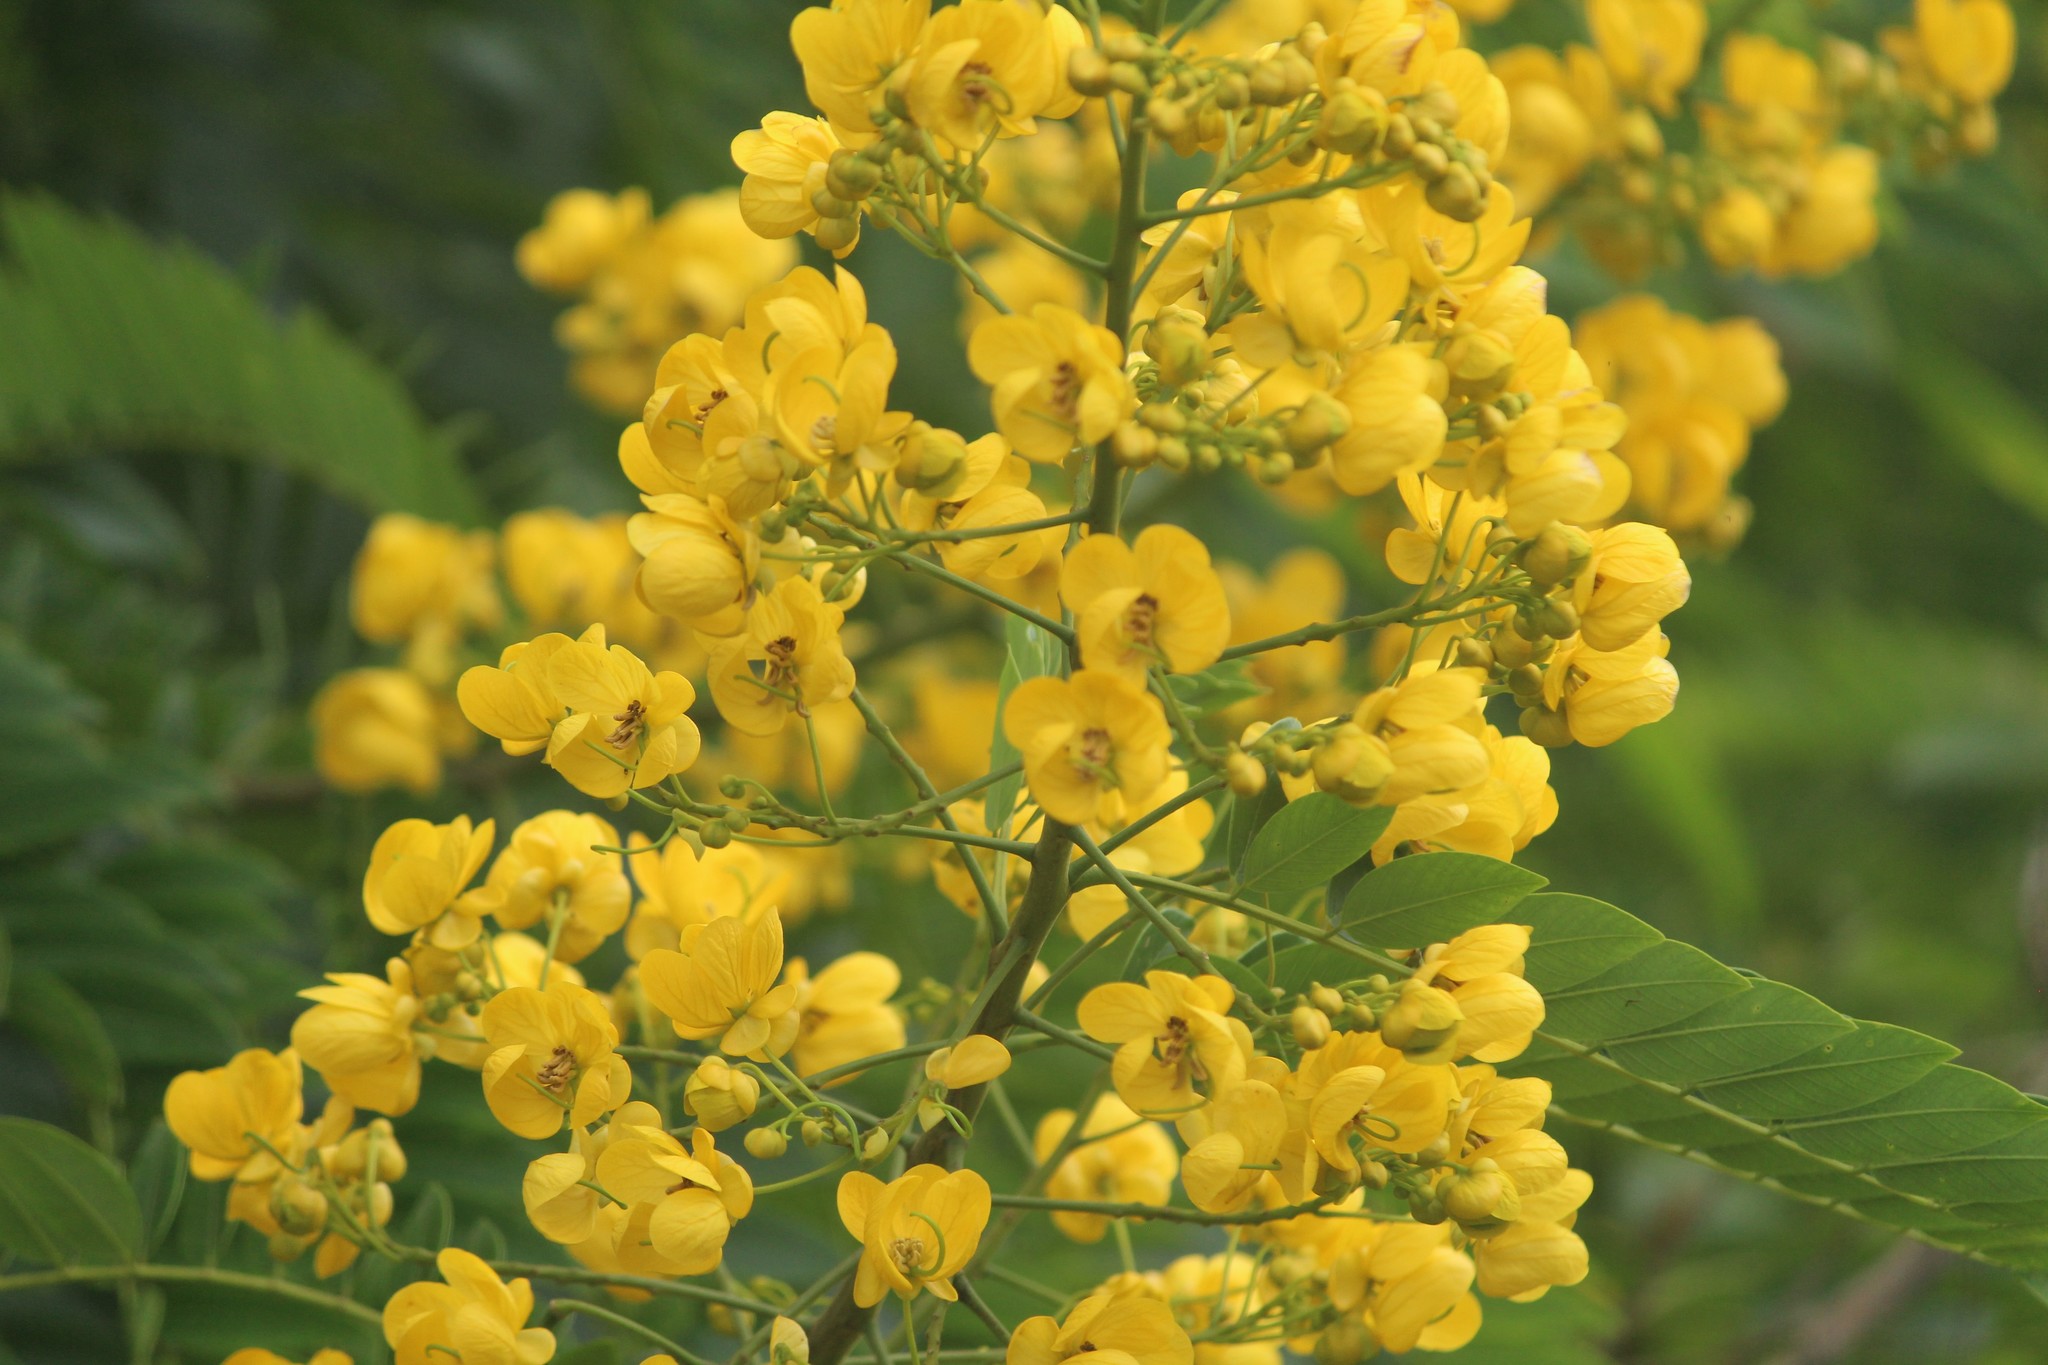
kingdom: Plantae
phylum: Tracheophyta
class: Magnoliopsida
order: Fabales
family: Fabaceae
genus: Senna
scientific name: Senna spectabilis
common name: Casia amarilla
